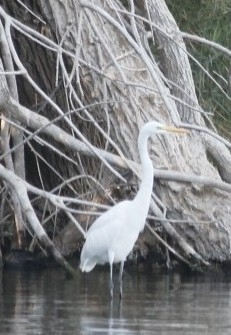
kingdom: Animalia
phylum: Chordata
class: Aves
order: Pelecaniformes
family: Ardeidae
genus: Ardea
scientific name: Ardea alba
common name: Great egret
